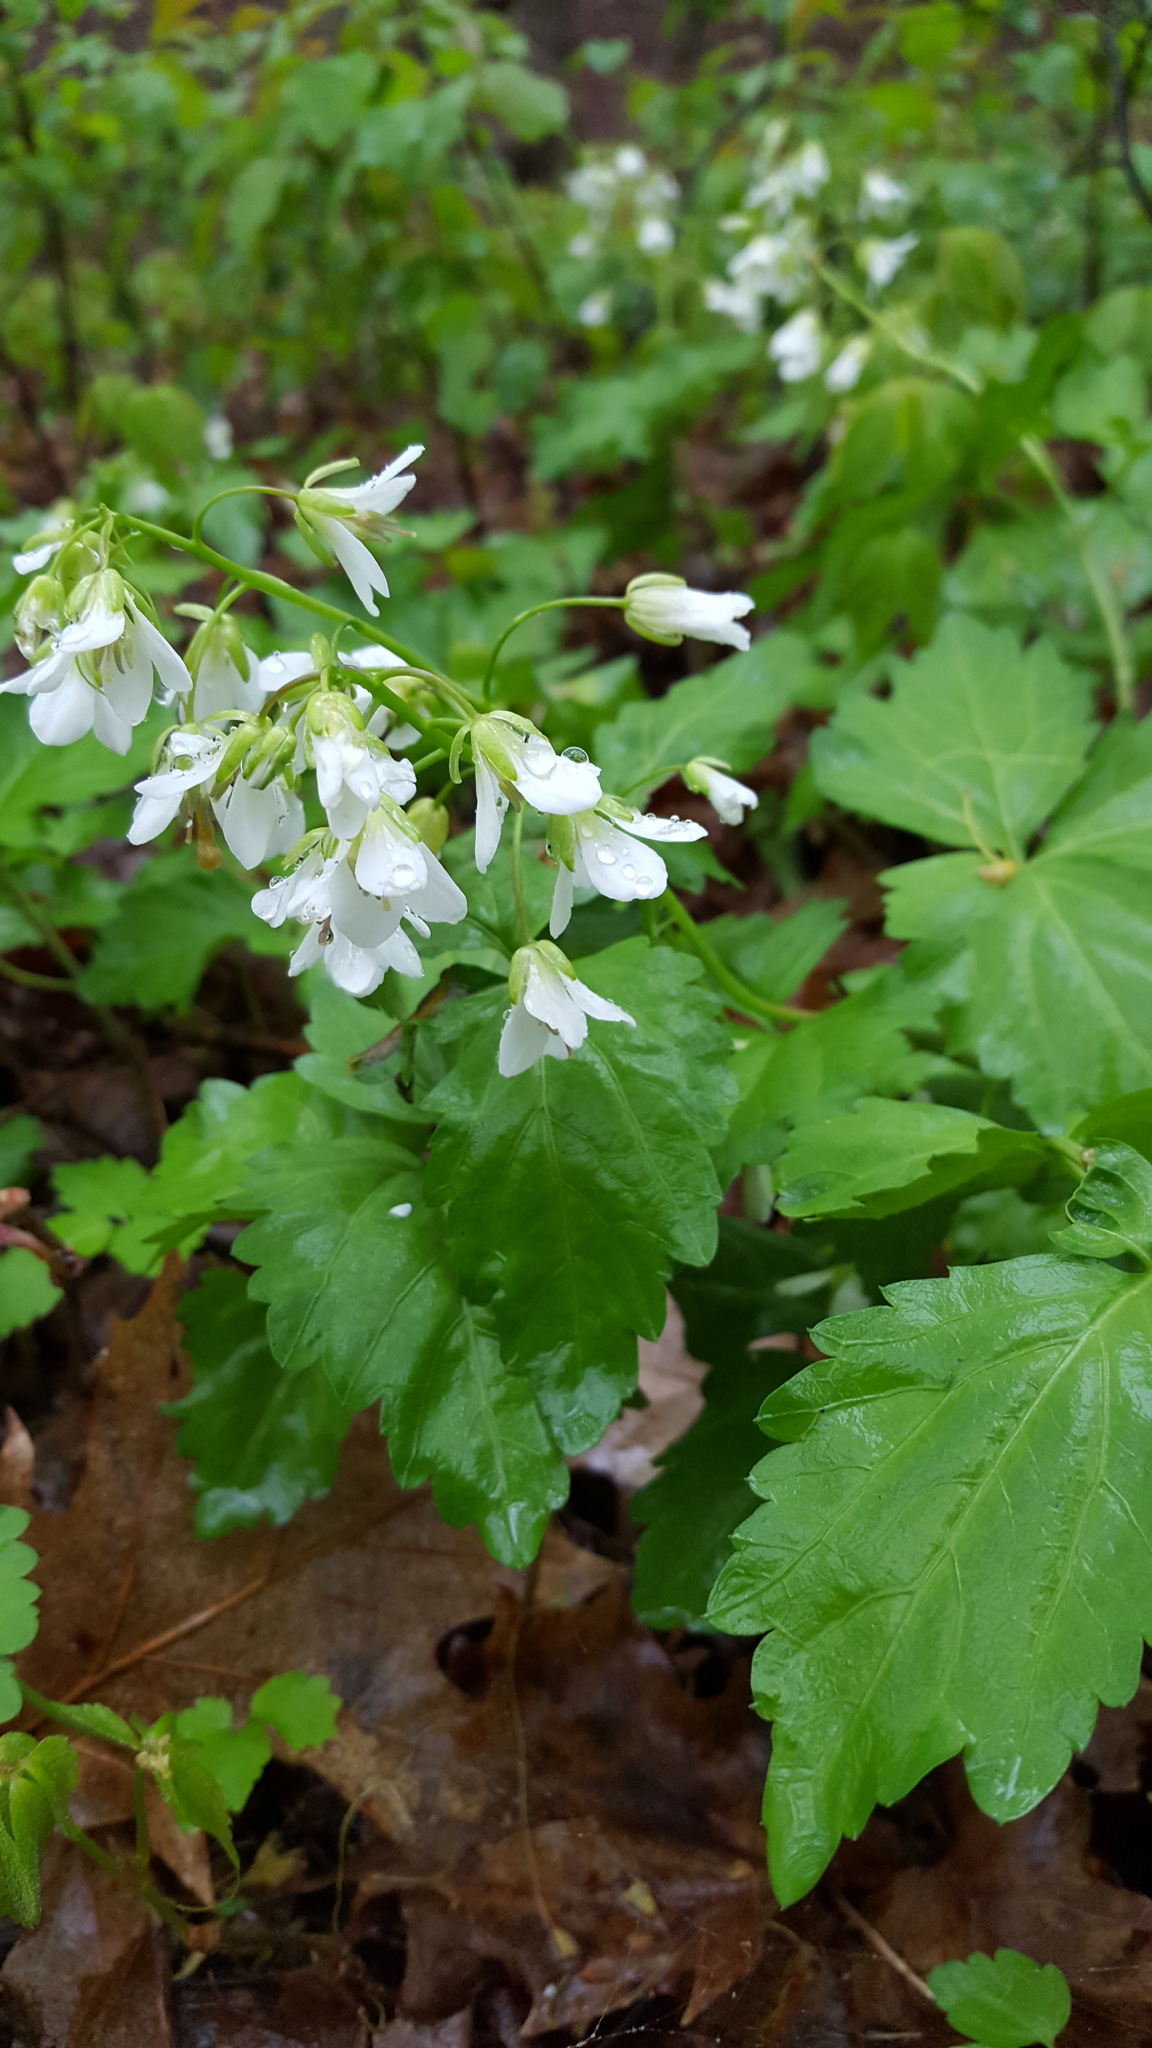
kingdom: Plantae
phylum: Tracheophyta
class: Magnoliopsida
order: Brassicales
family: Brassicaceae
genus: Cardamine
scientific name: Cardamine diphylla
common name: Broad-leaved toothwort
